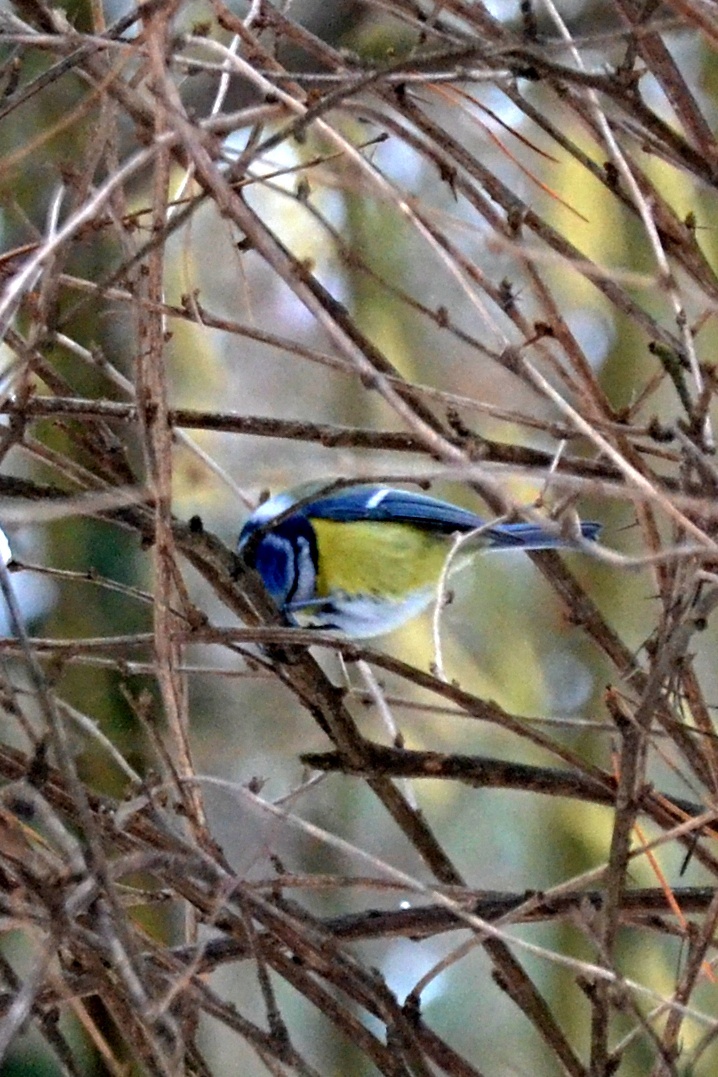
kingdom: Animalia
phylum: Chordata
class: Aves
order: Passeriformes
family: Paridae
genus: Cyanistes
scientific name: Cyanistes caeruleus
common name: Eurasian blue tit
